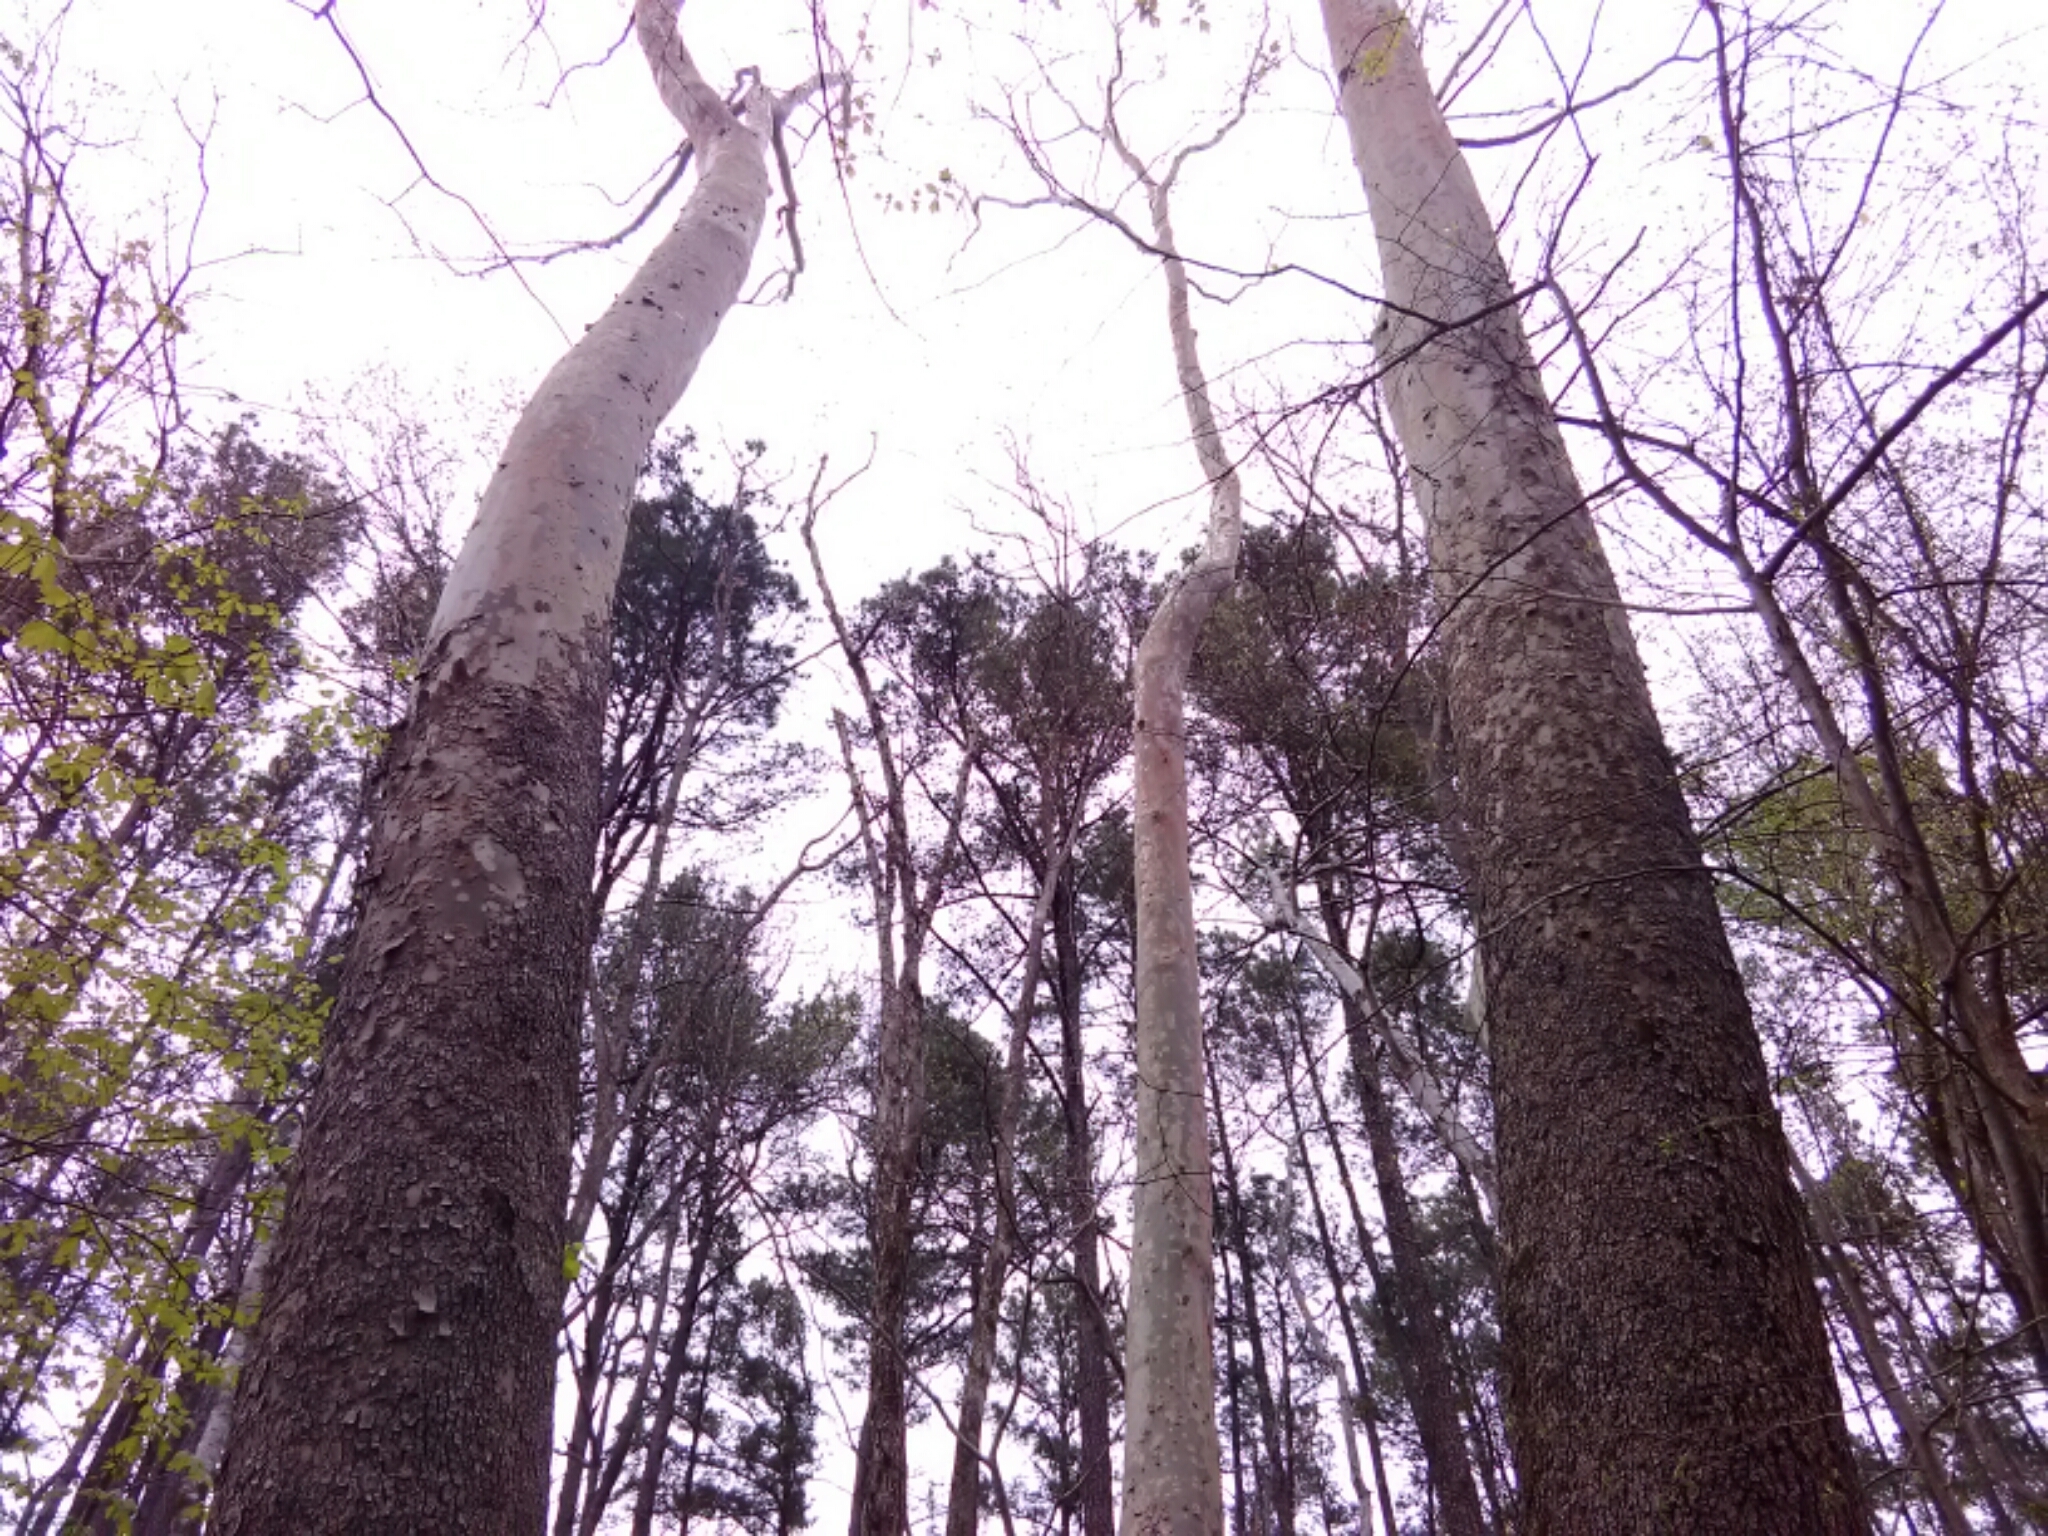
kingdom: Plantae
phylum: Tracheophyta
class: Magnoliopsida
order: Proteales
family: Platanaceae
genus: Platanus
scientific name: Platanus occidentalis
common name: American sycamore
